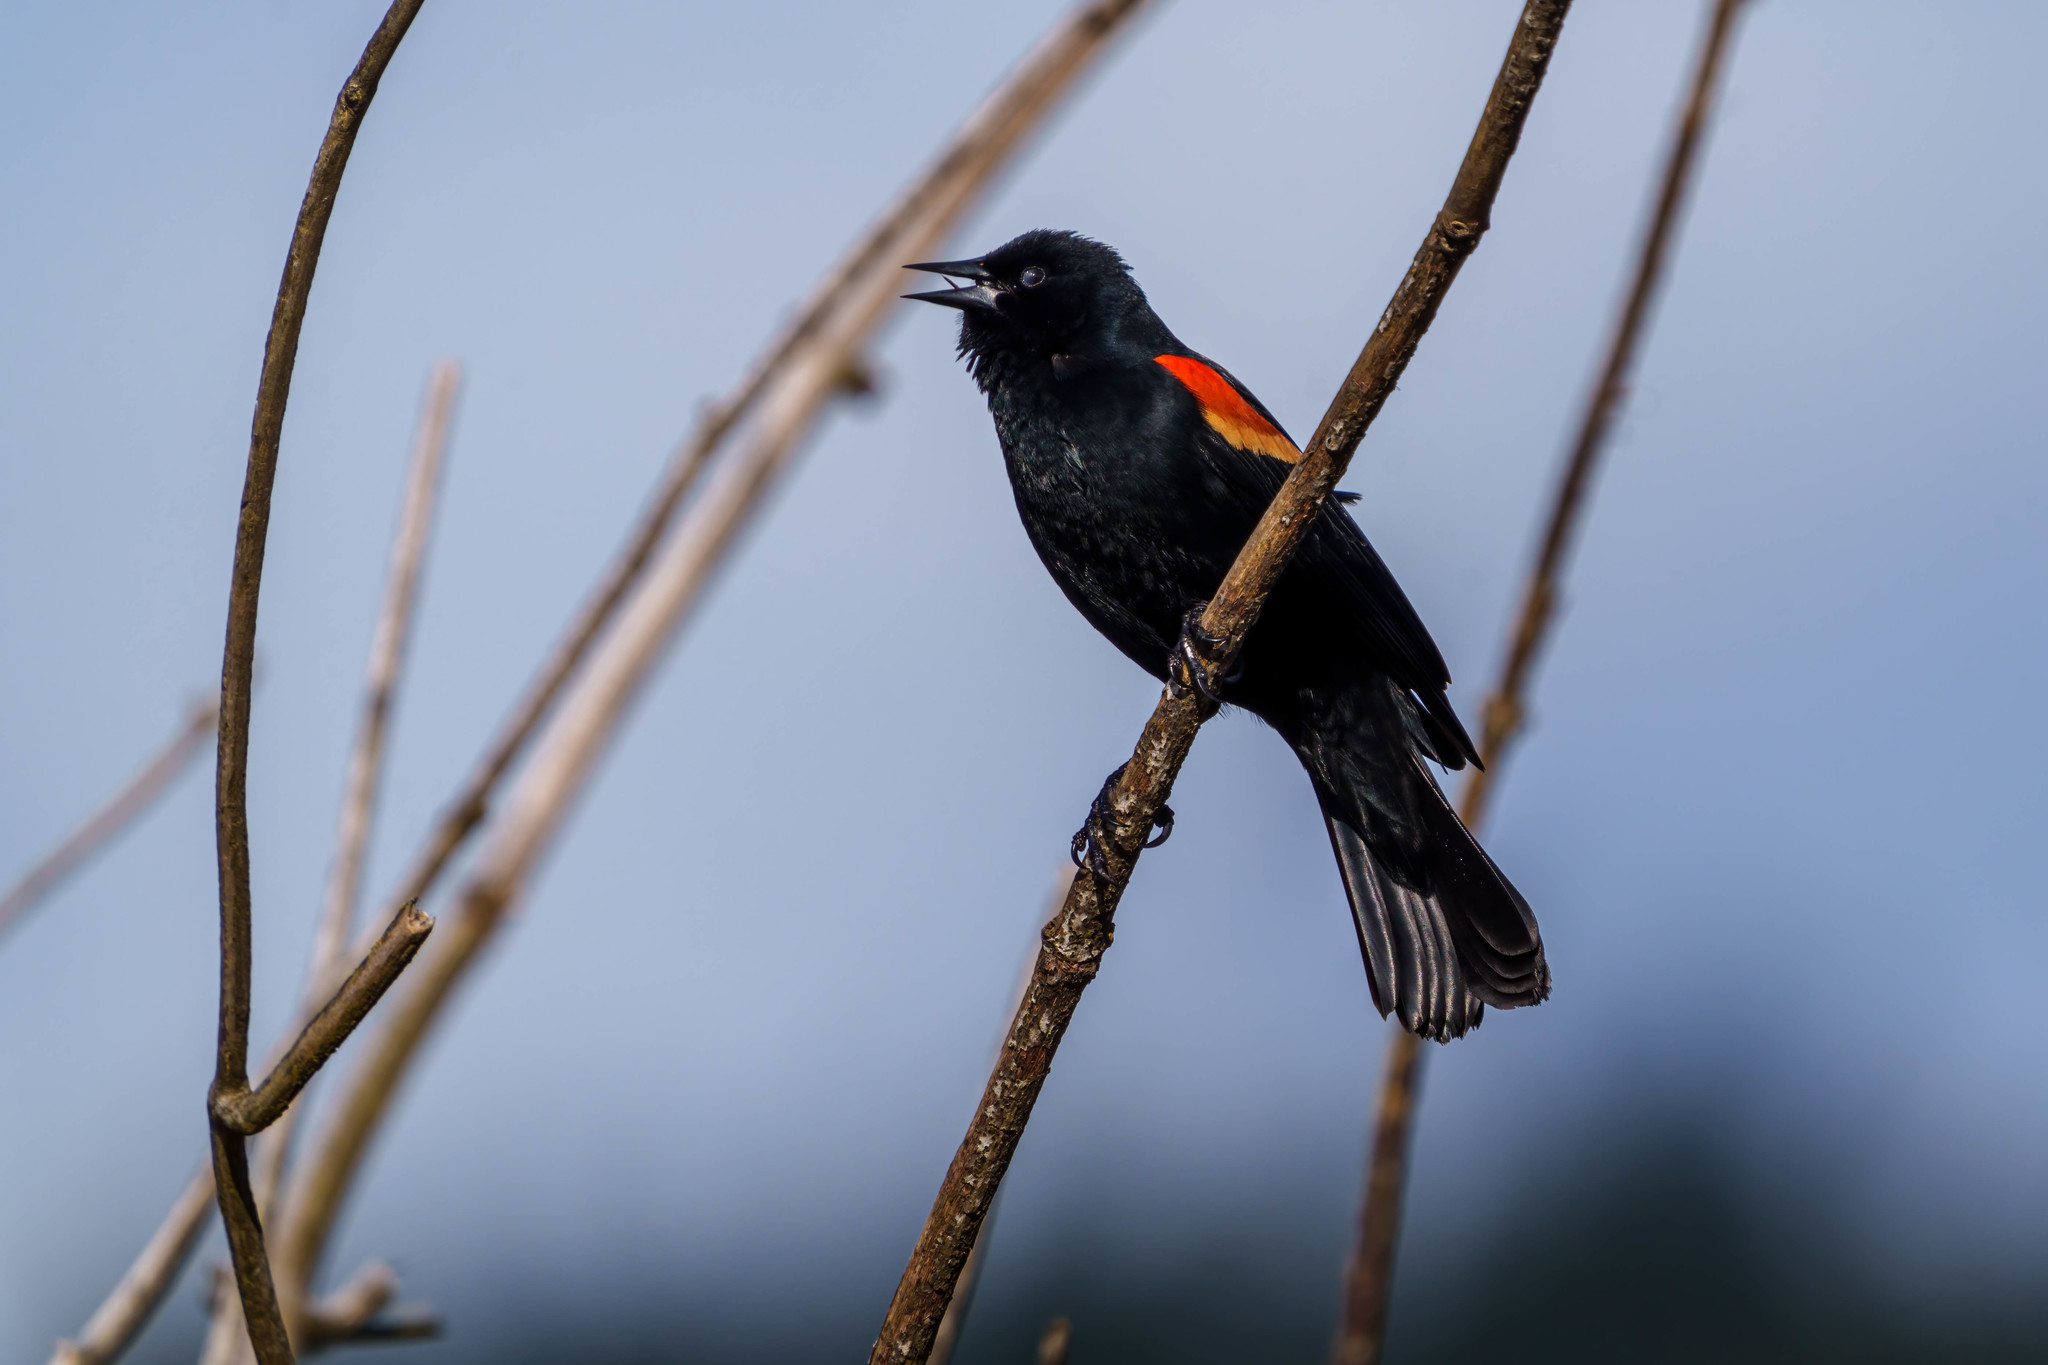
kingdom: Animalia
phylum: Chordata
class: Aves
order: Passeriformes
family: Icteridae
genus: Agelaius
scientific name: Agelaius phoeniceus
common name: Red-winged blackbird
